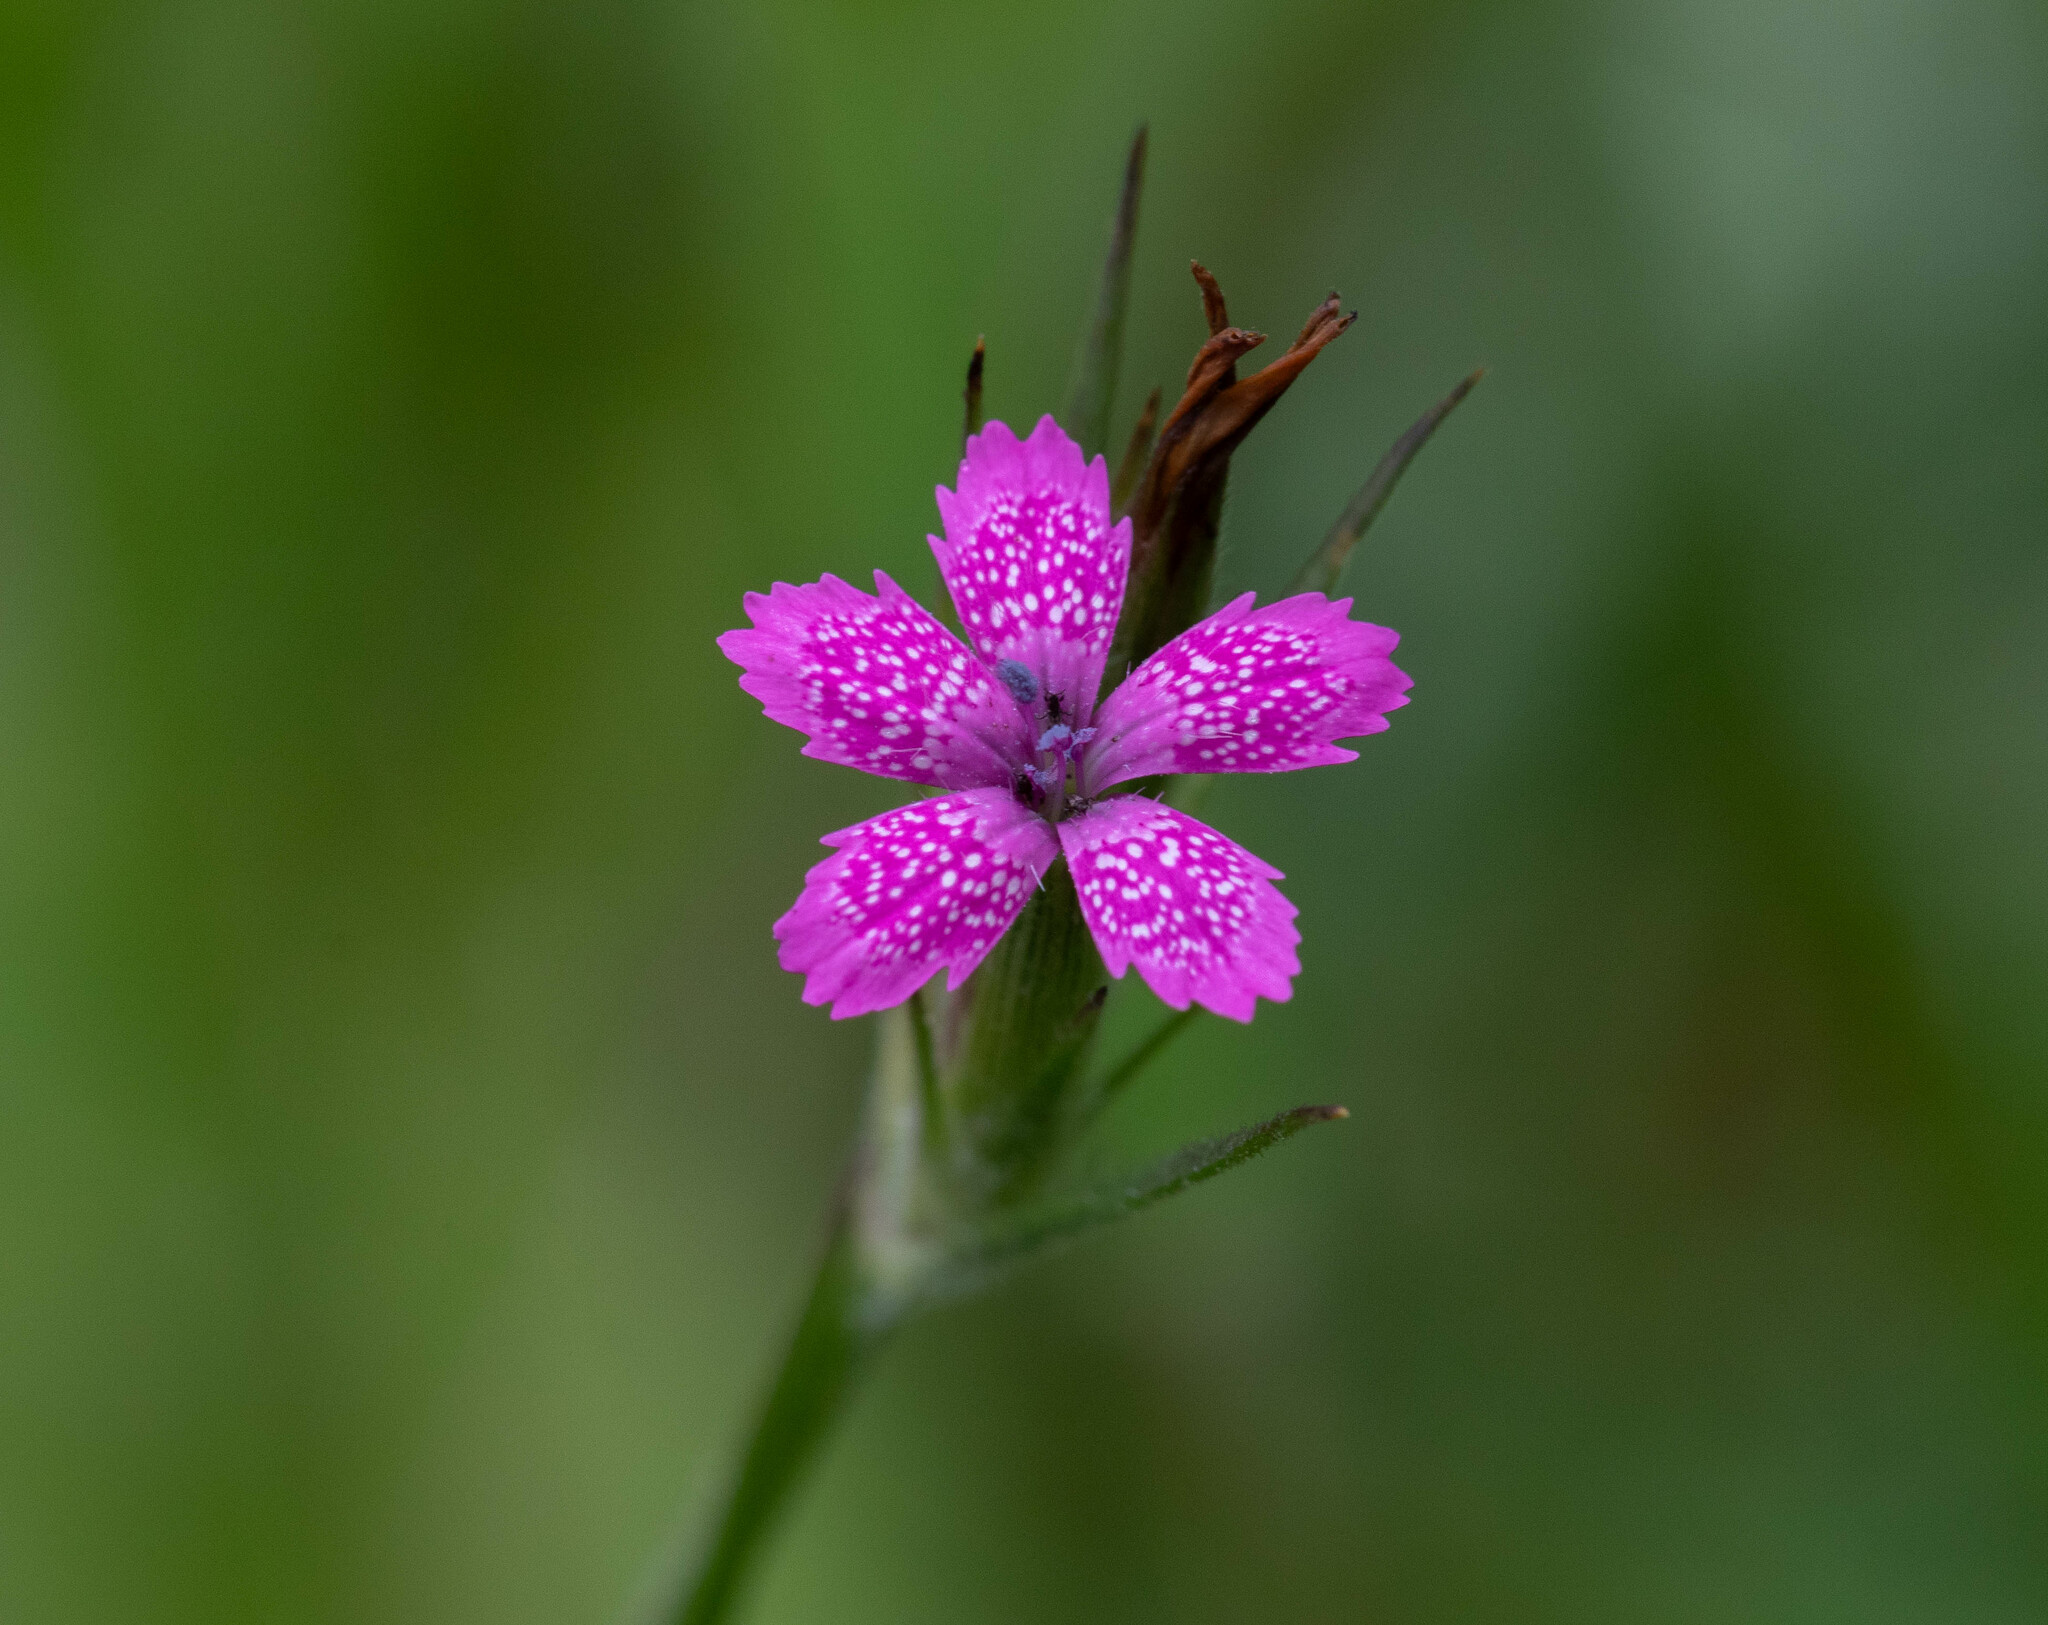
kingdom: Plantae
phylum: Tracheophyta
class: Magnoliopsida
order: Caryophyllales
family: Caryophyllaceae
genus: Dianthus
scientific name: Dianthus armeria
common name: Deptford pink
